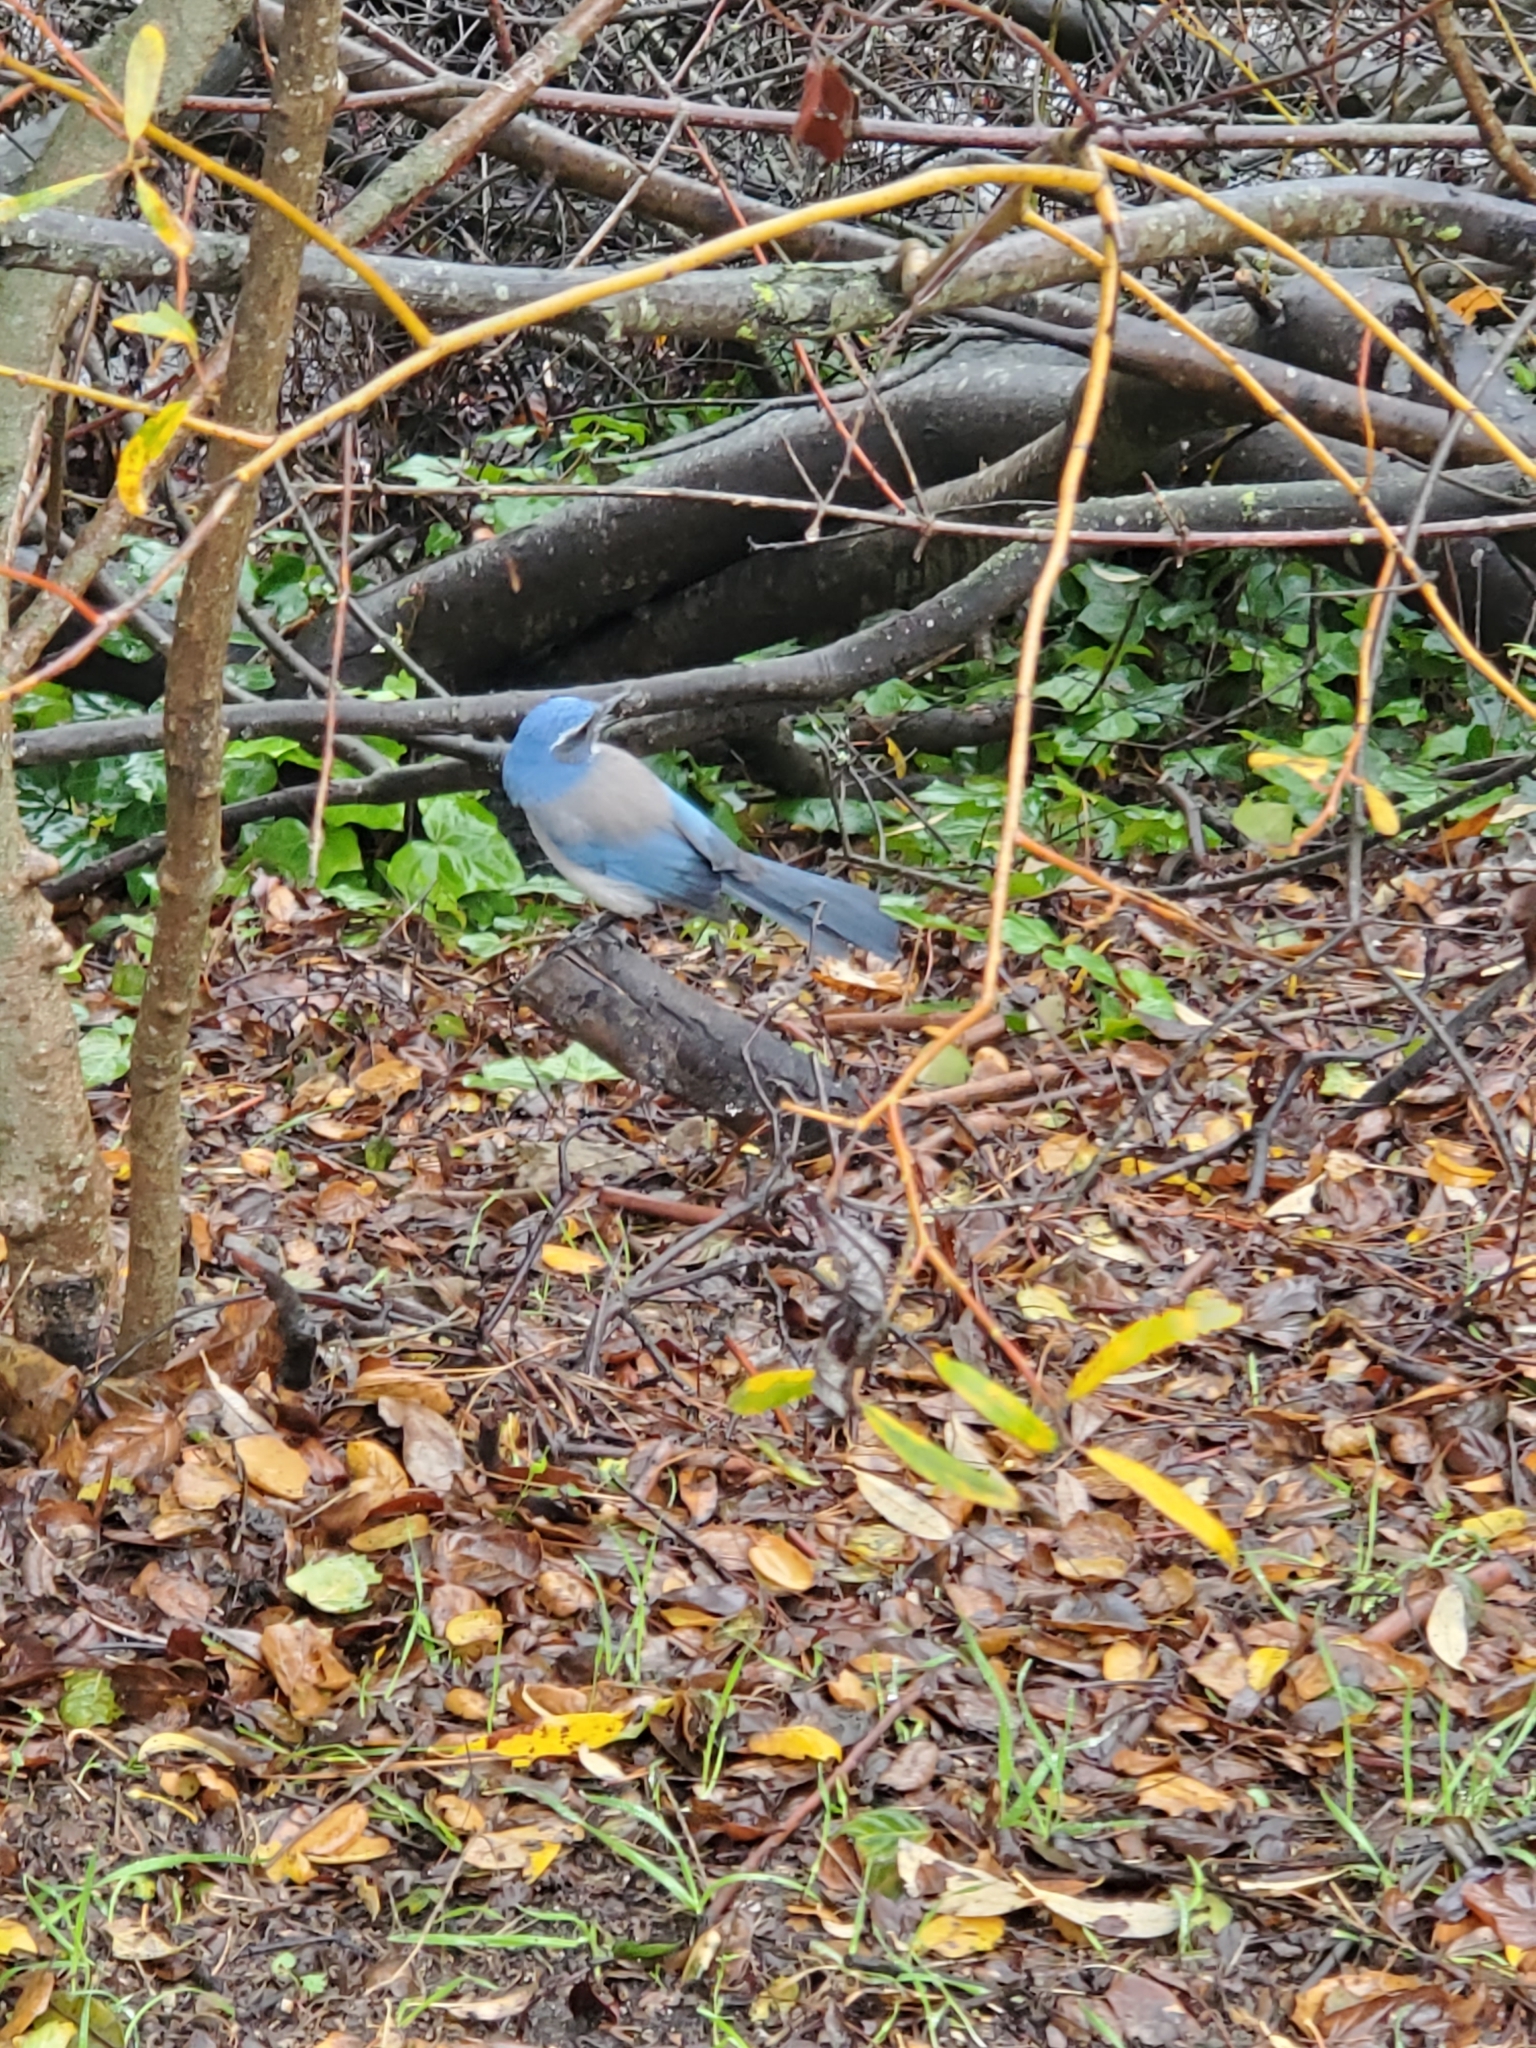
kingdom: Animalia
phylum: Chordata
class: Aves
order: Passeriformes
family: Corvidae
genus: Aphelocoma
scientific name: Aphelocoma californica
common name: California scrub-jay
